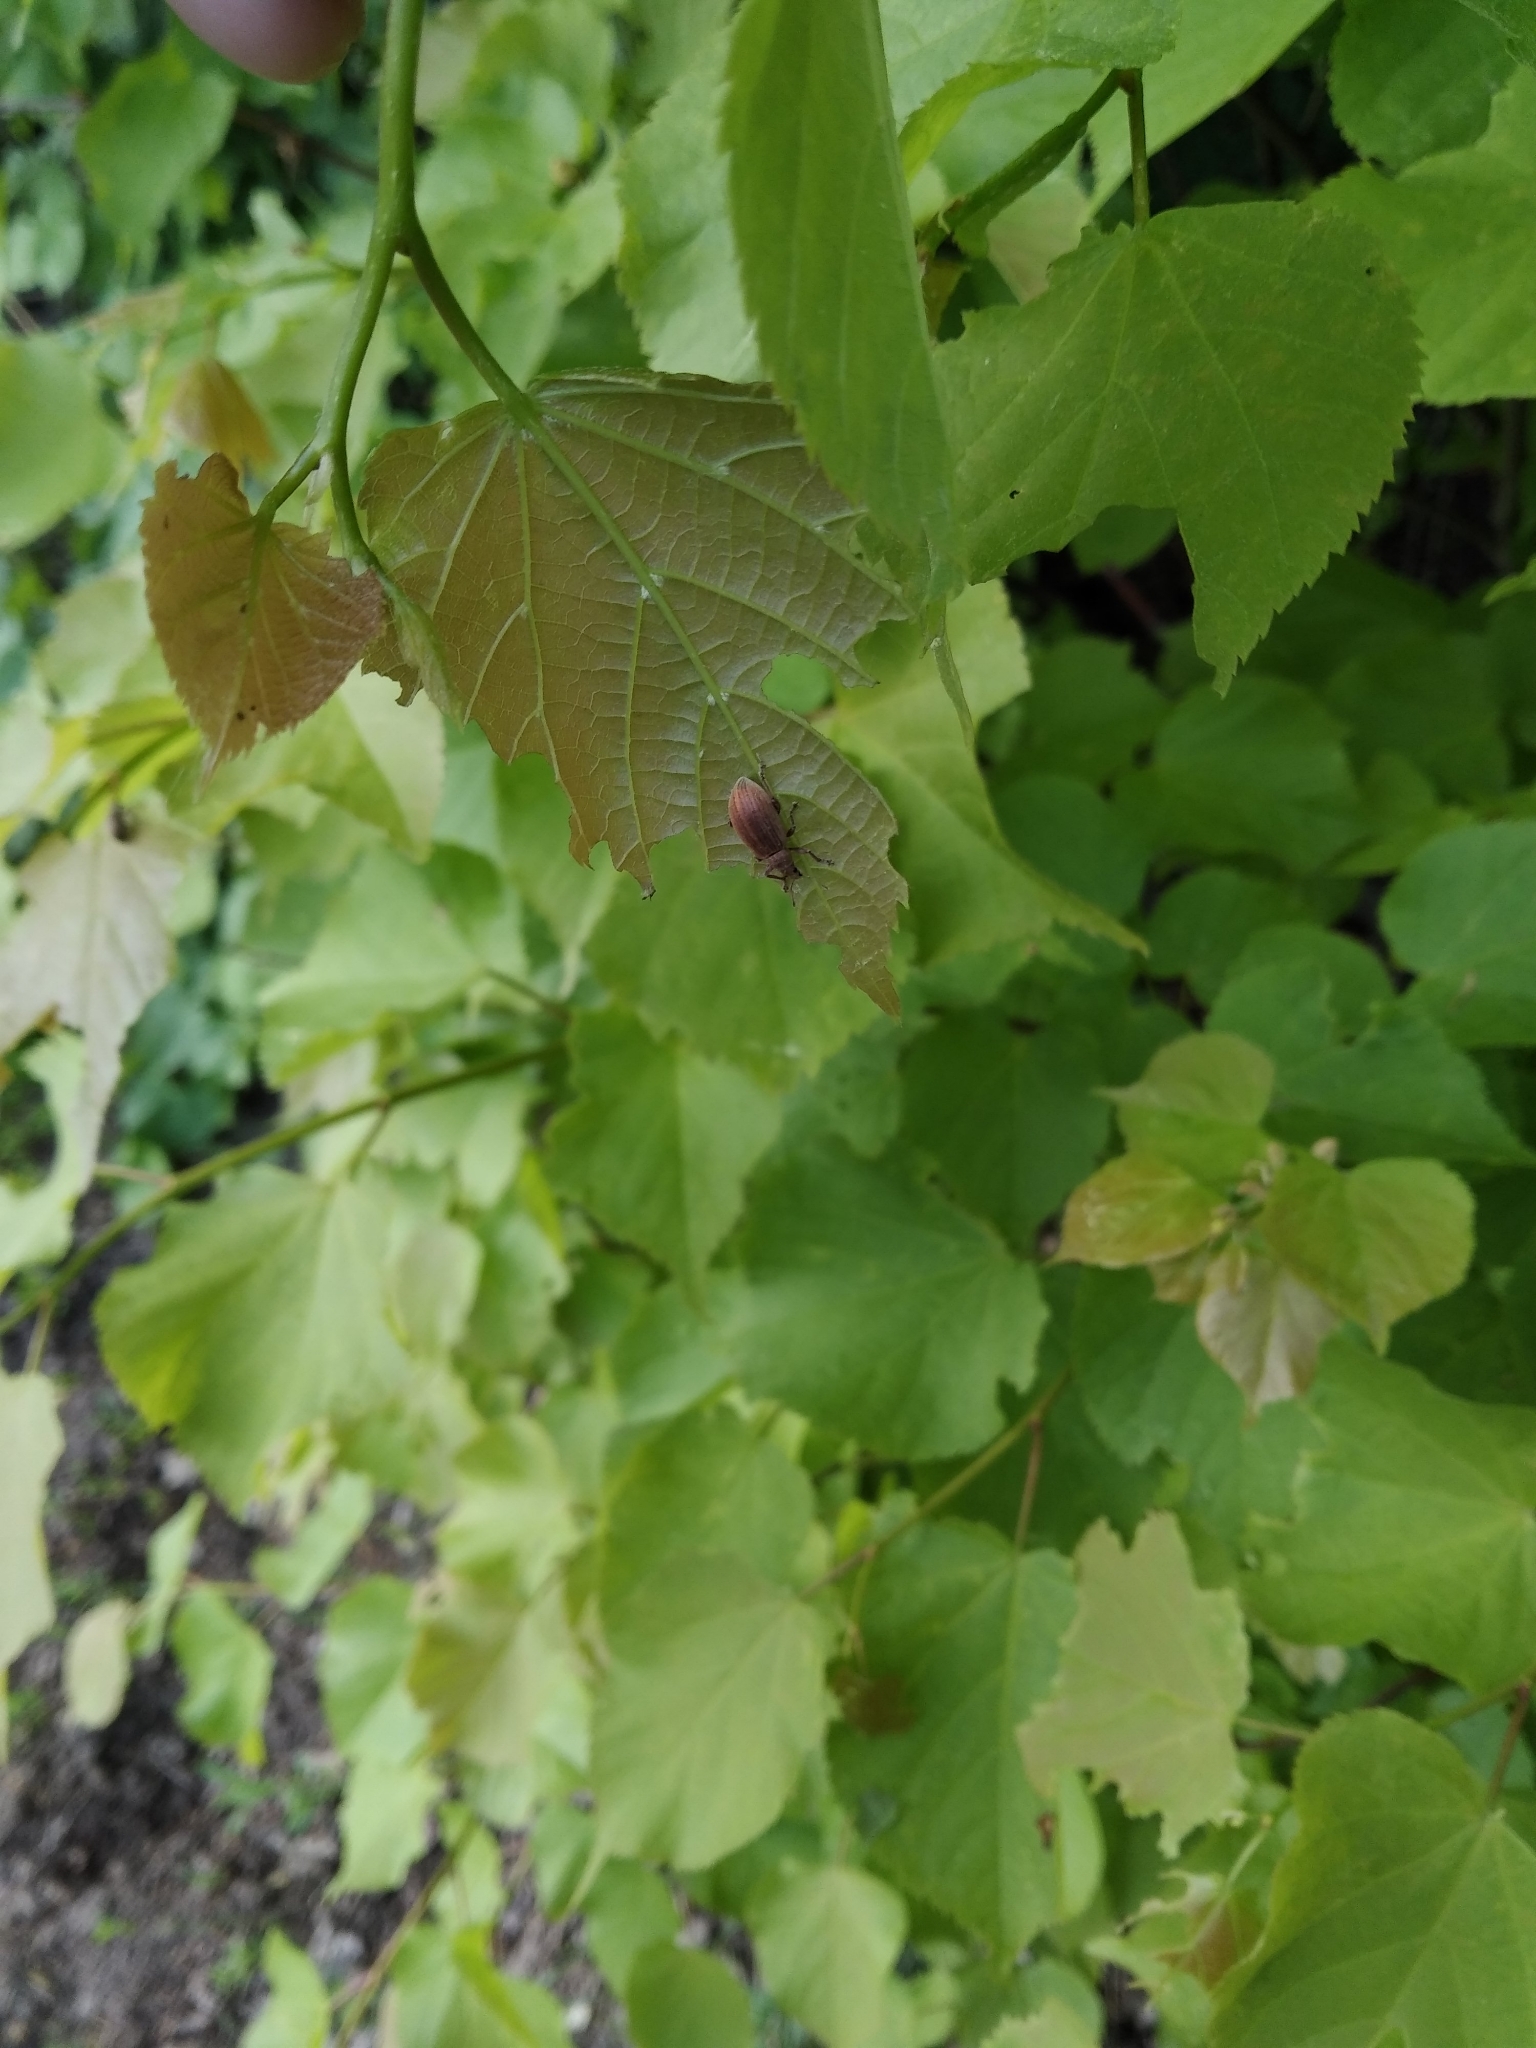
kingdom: Animalia
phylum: Arthropoda
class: Insecta
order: Coleoptera
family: Curculionidae
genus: Polydrusus
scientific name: Polydrusus mollis
